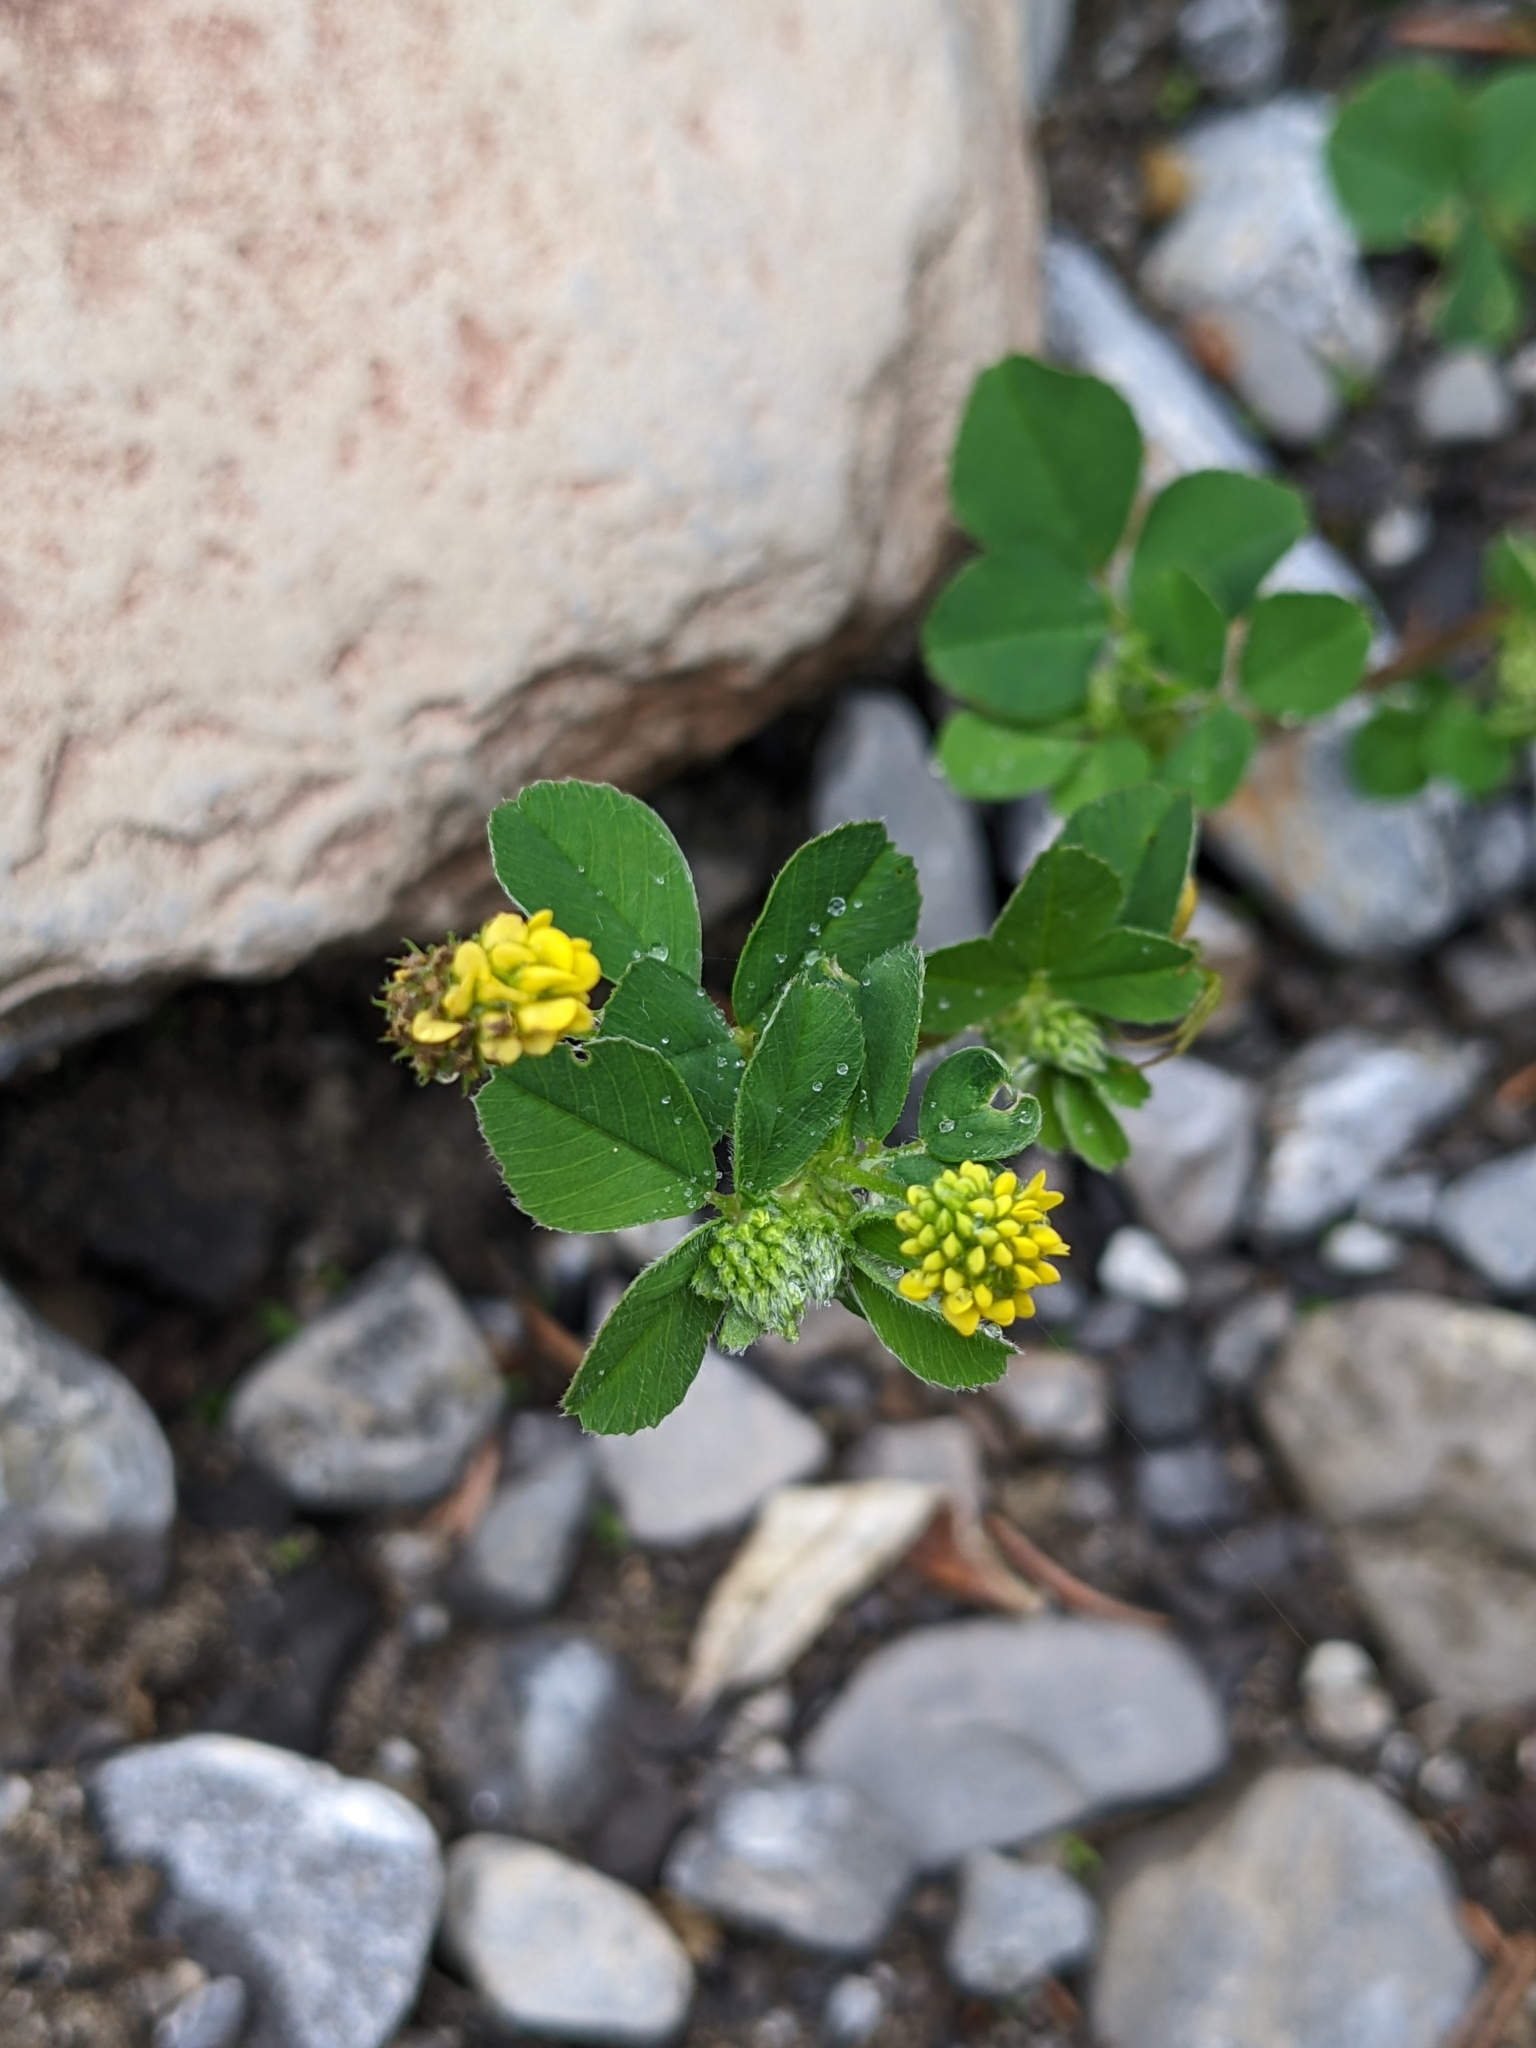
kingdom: Plantae
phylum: Tracheophyta
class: Magnoliopsida
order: Fabales
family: Fabaceae
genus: Medicago
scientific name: Medicago lupulina
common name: Black medick
